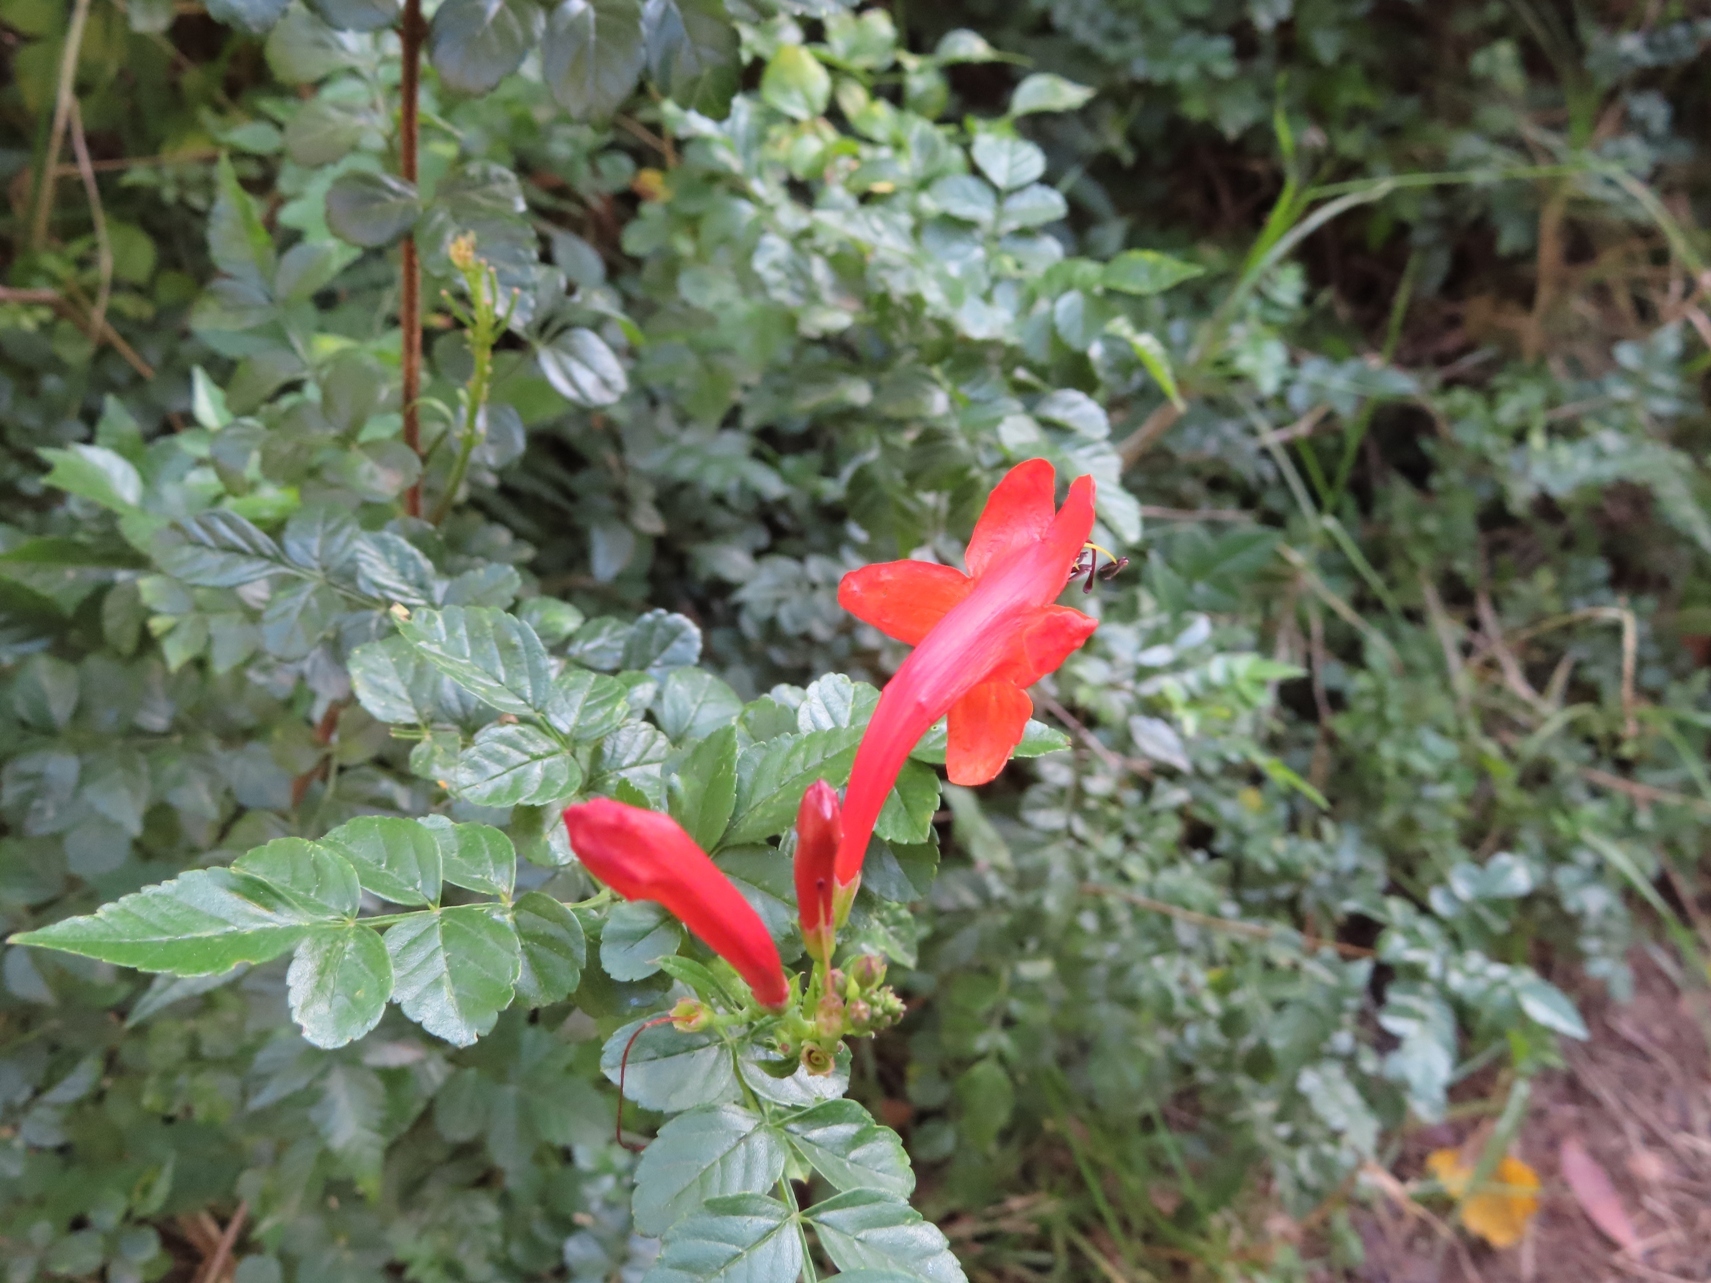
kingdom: Plantae
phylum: Tracheophyta
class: Magnoliopsida
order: Lamiales
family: Bignoniaceae
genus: Tecomaria
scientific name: Tecomaria capensis
